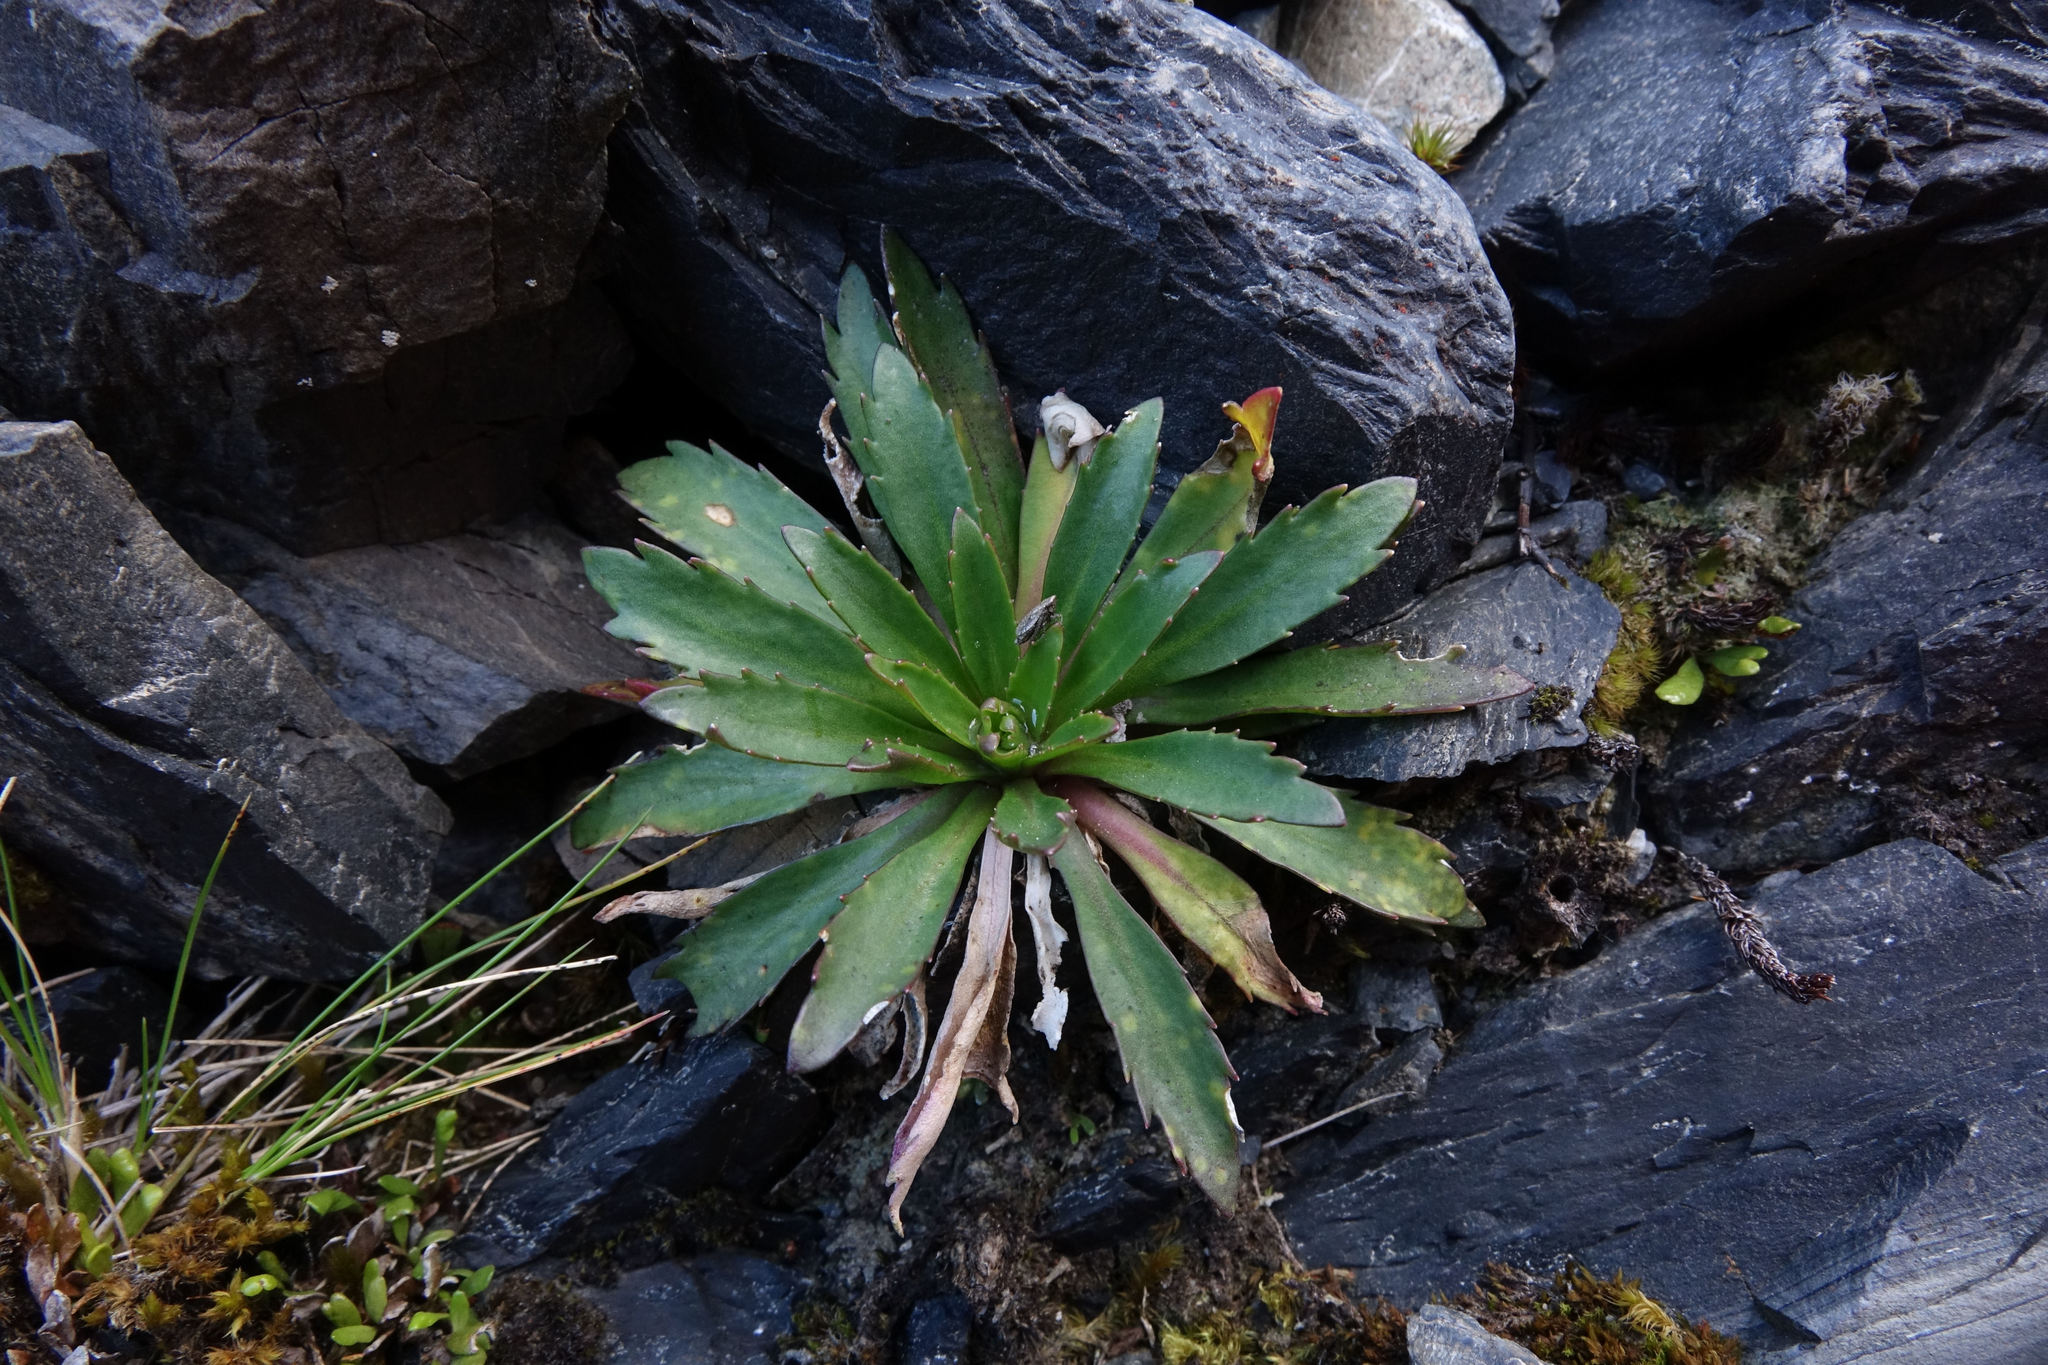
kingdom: Plantae
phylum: Tracheophyta
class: Magnoliopsida
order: Brassicales
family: Brassicaceae
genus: Pachycladon
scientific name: Pachycladon fastigiatum
